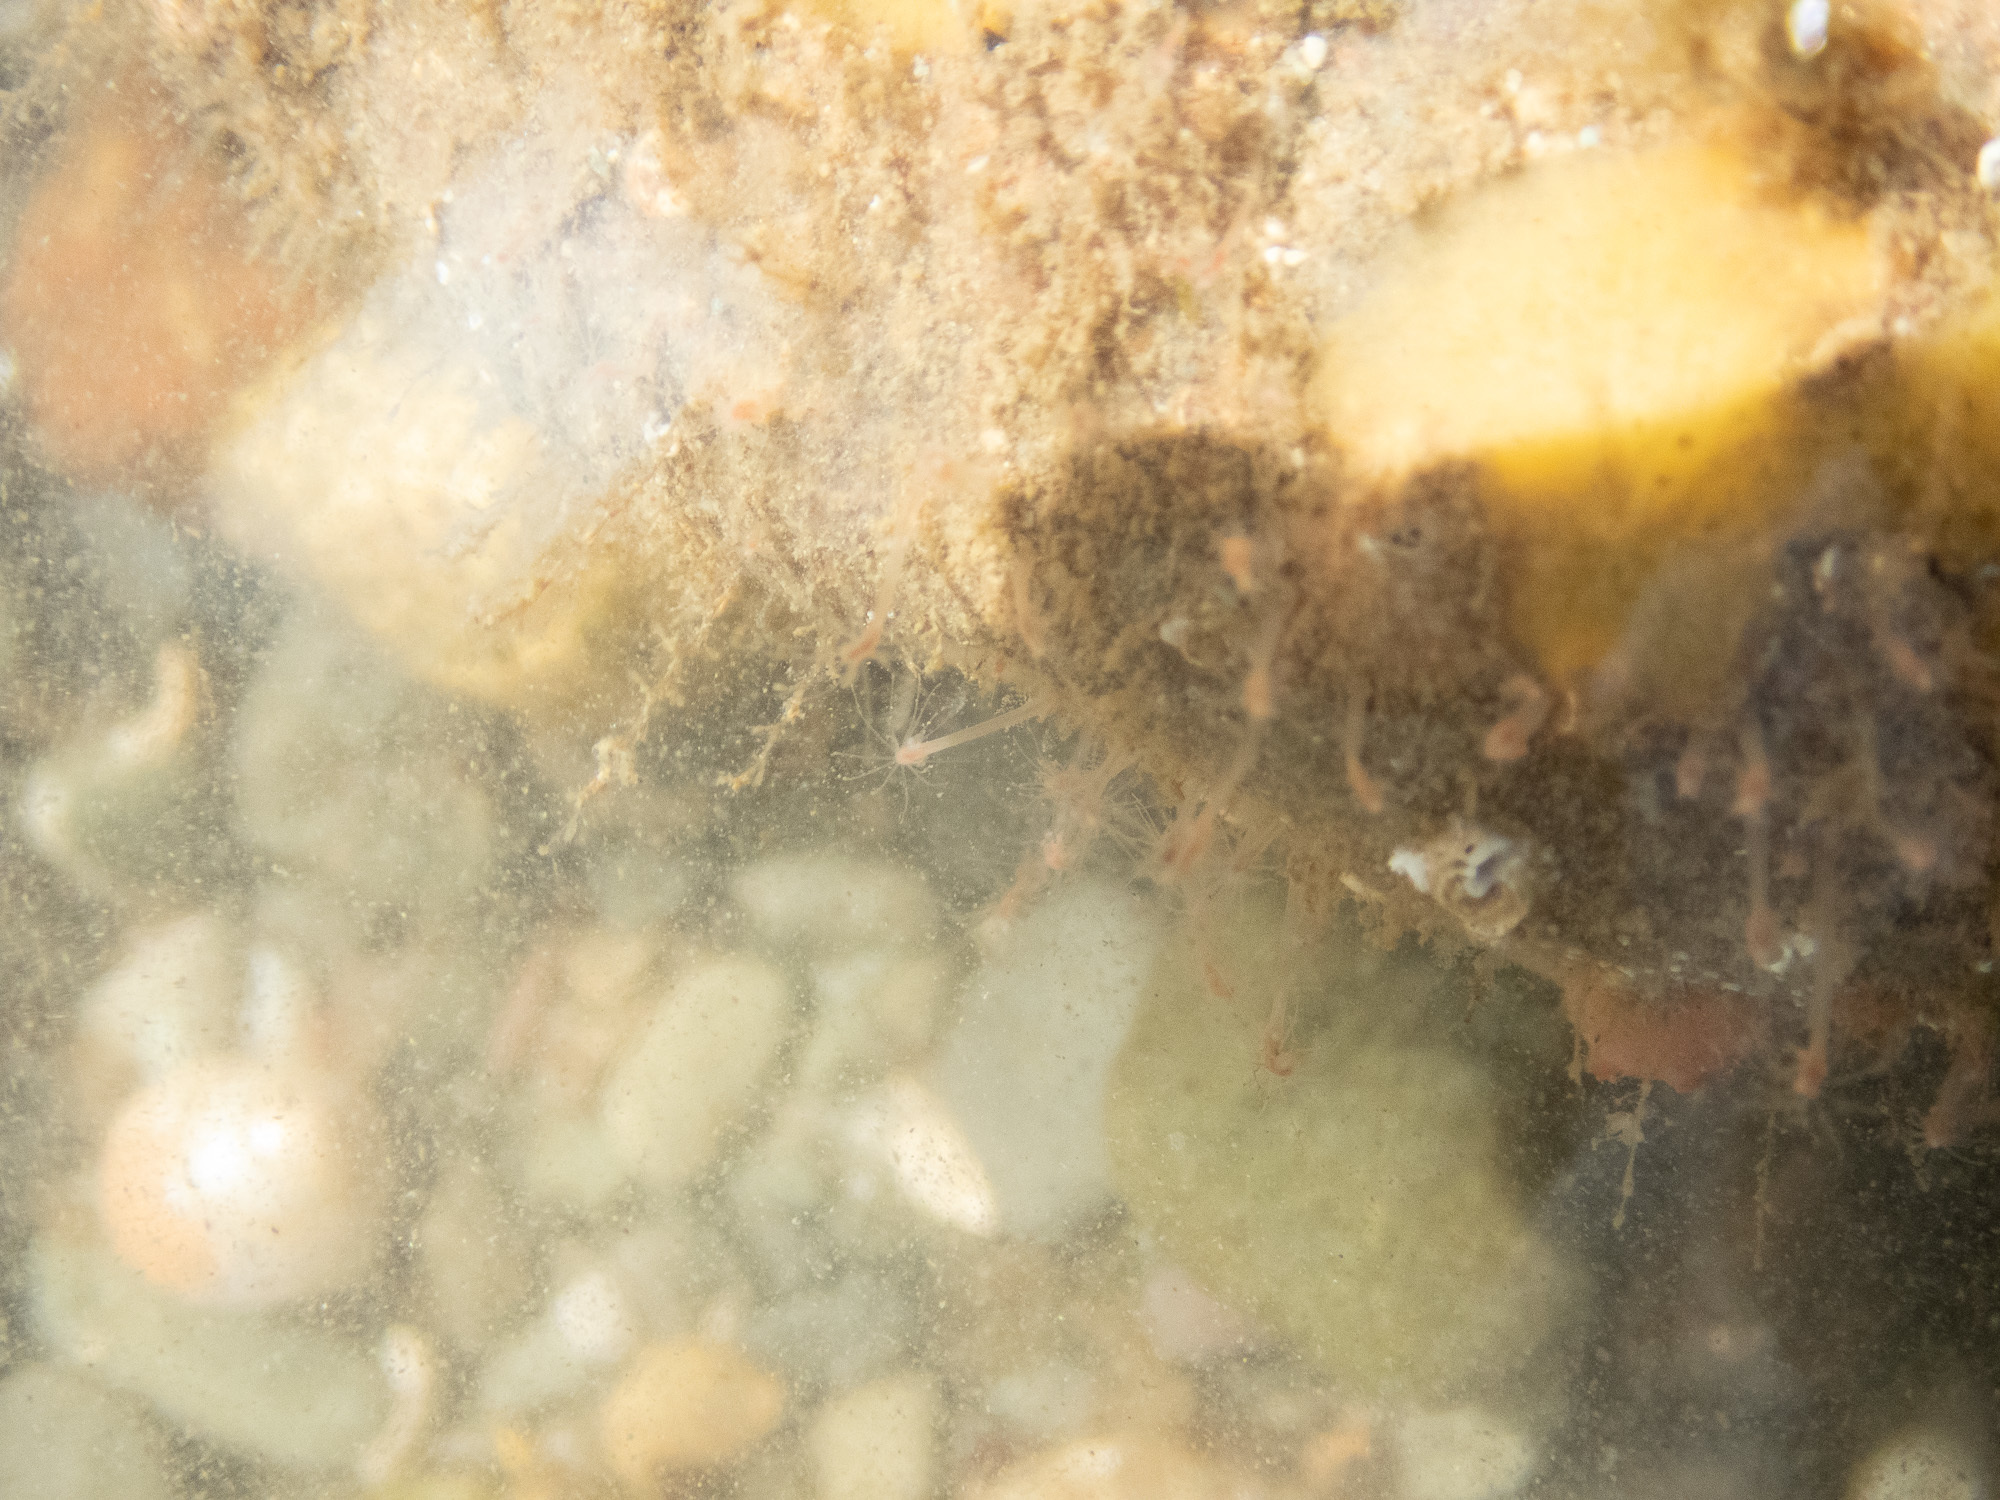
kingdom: Animalia
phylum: Cnidaria
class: Hydrozoa
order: Anthoathecata
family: Hydractiniidae
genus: Clava
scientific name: Clava multicornis
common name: Club-headed hydroid
